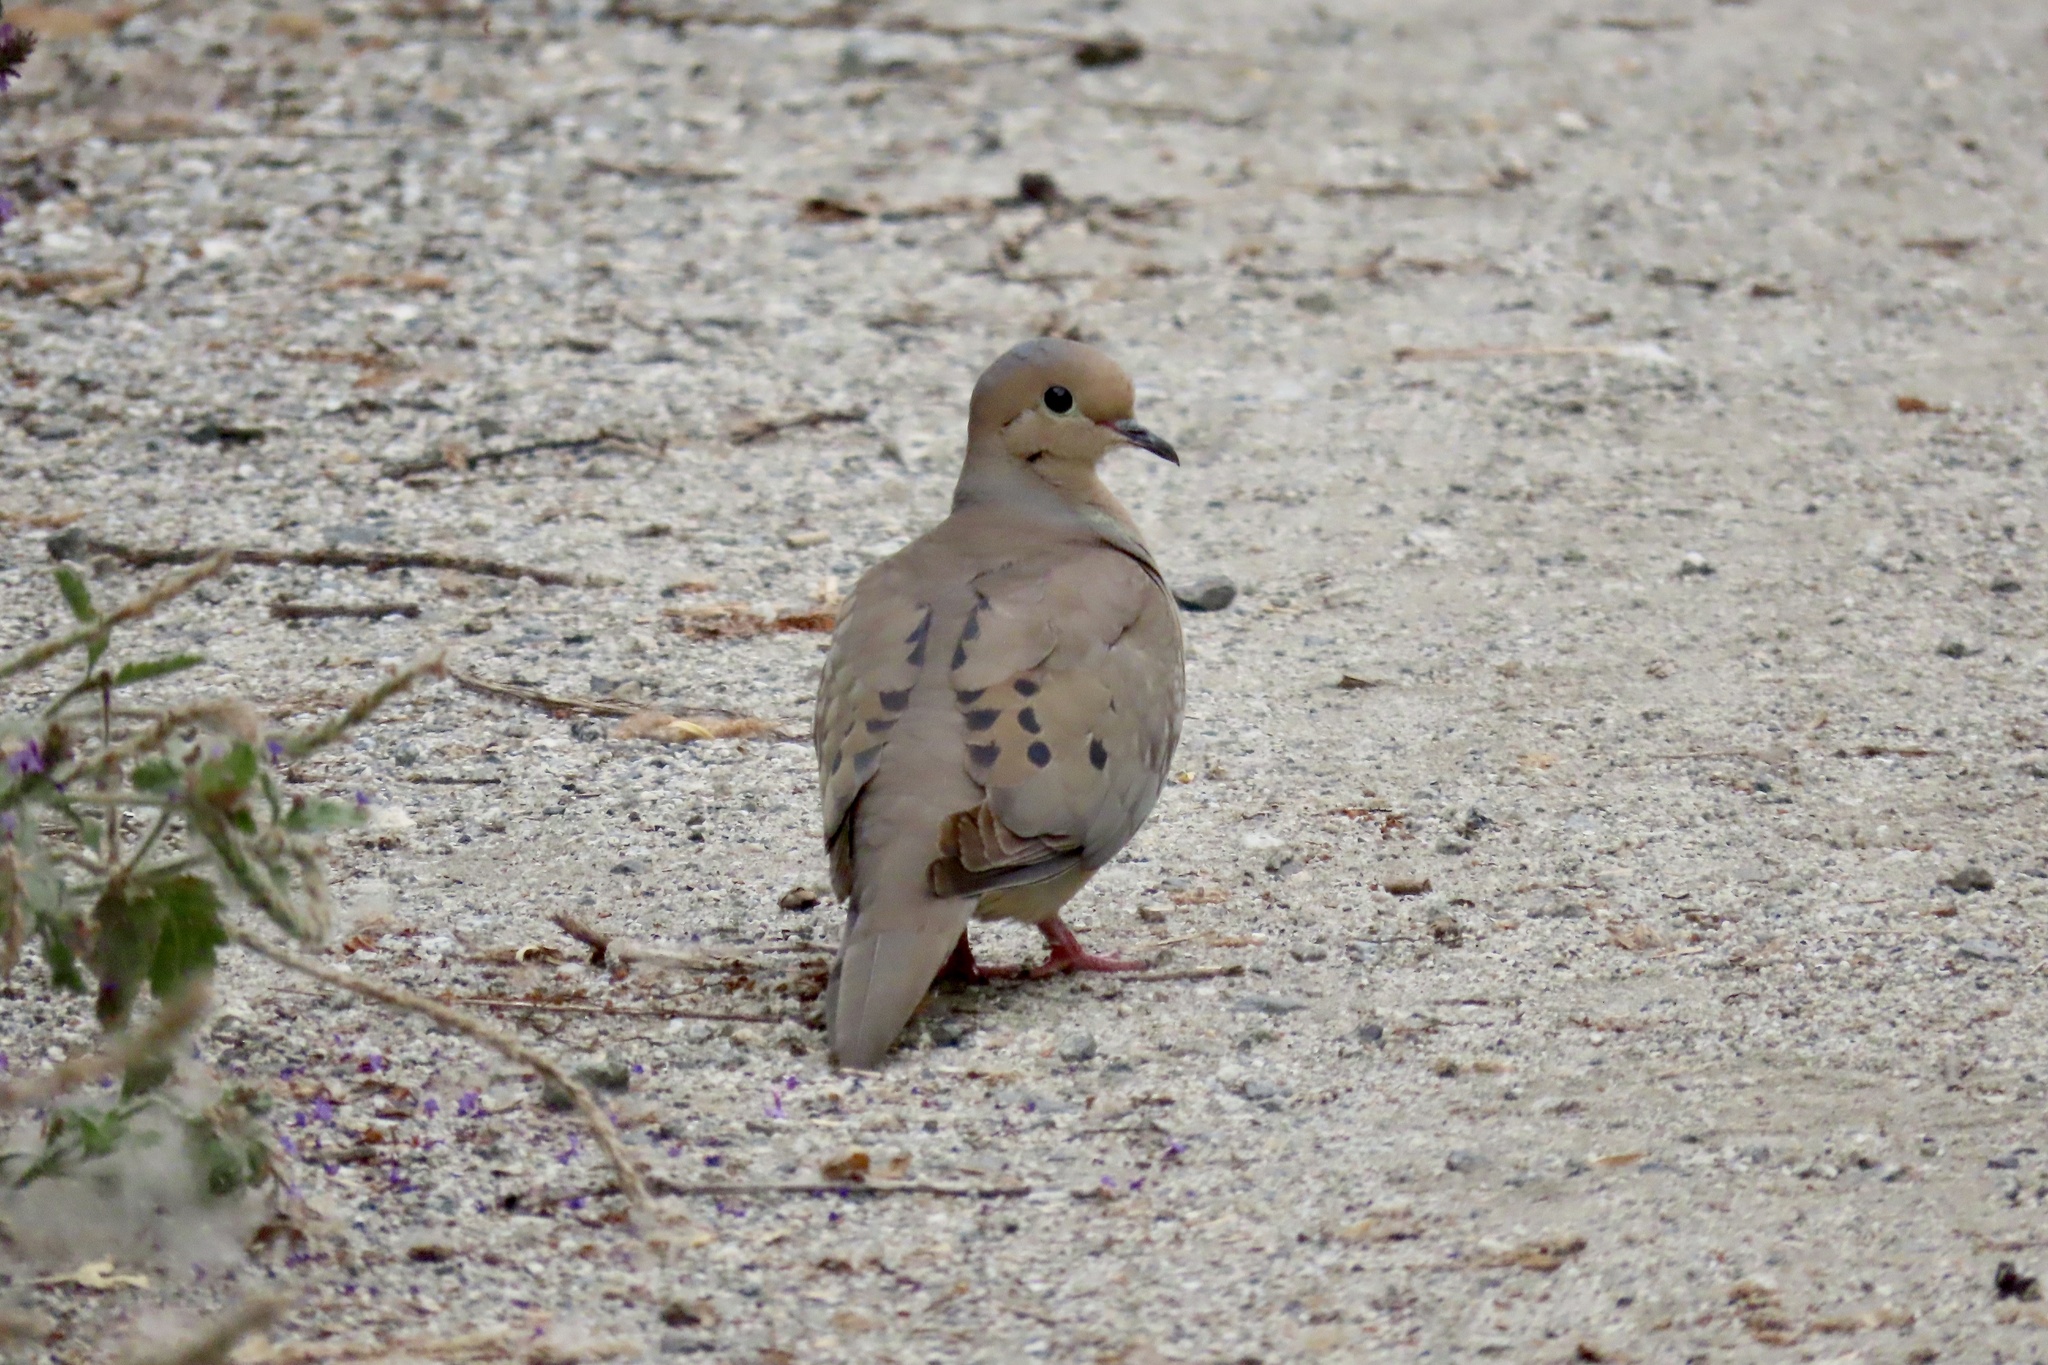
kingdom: Animalia
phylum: Chordata
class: Aves
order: Columbiformes
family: Columbidae
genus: Zenaida
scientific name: Zenaida macroura
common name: Mourning dove
